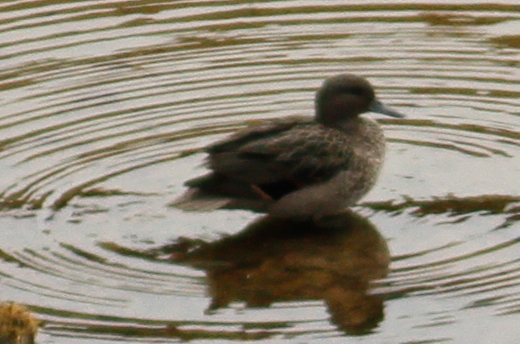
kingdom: Animalia
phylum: Chordata
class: Aves
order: Anseriformes
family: Anatidae
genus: Anas
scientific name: Anas andium
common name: Andean teal
